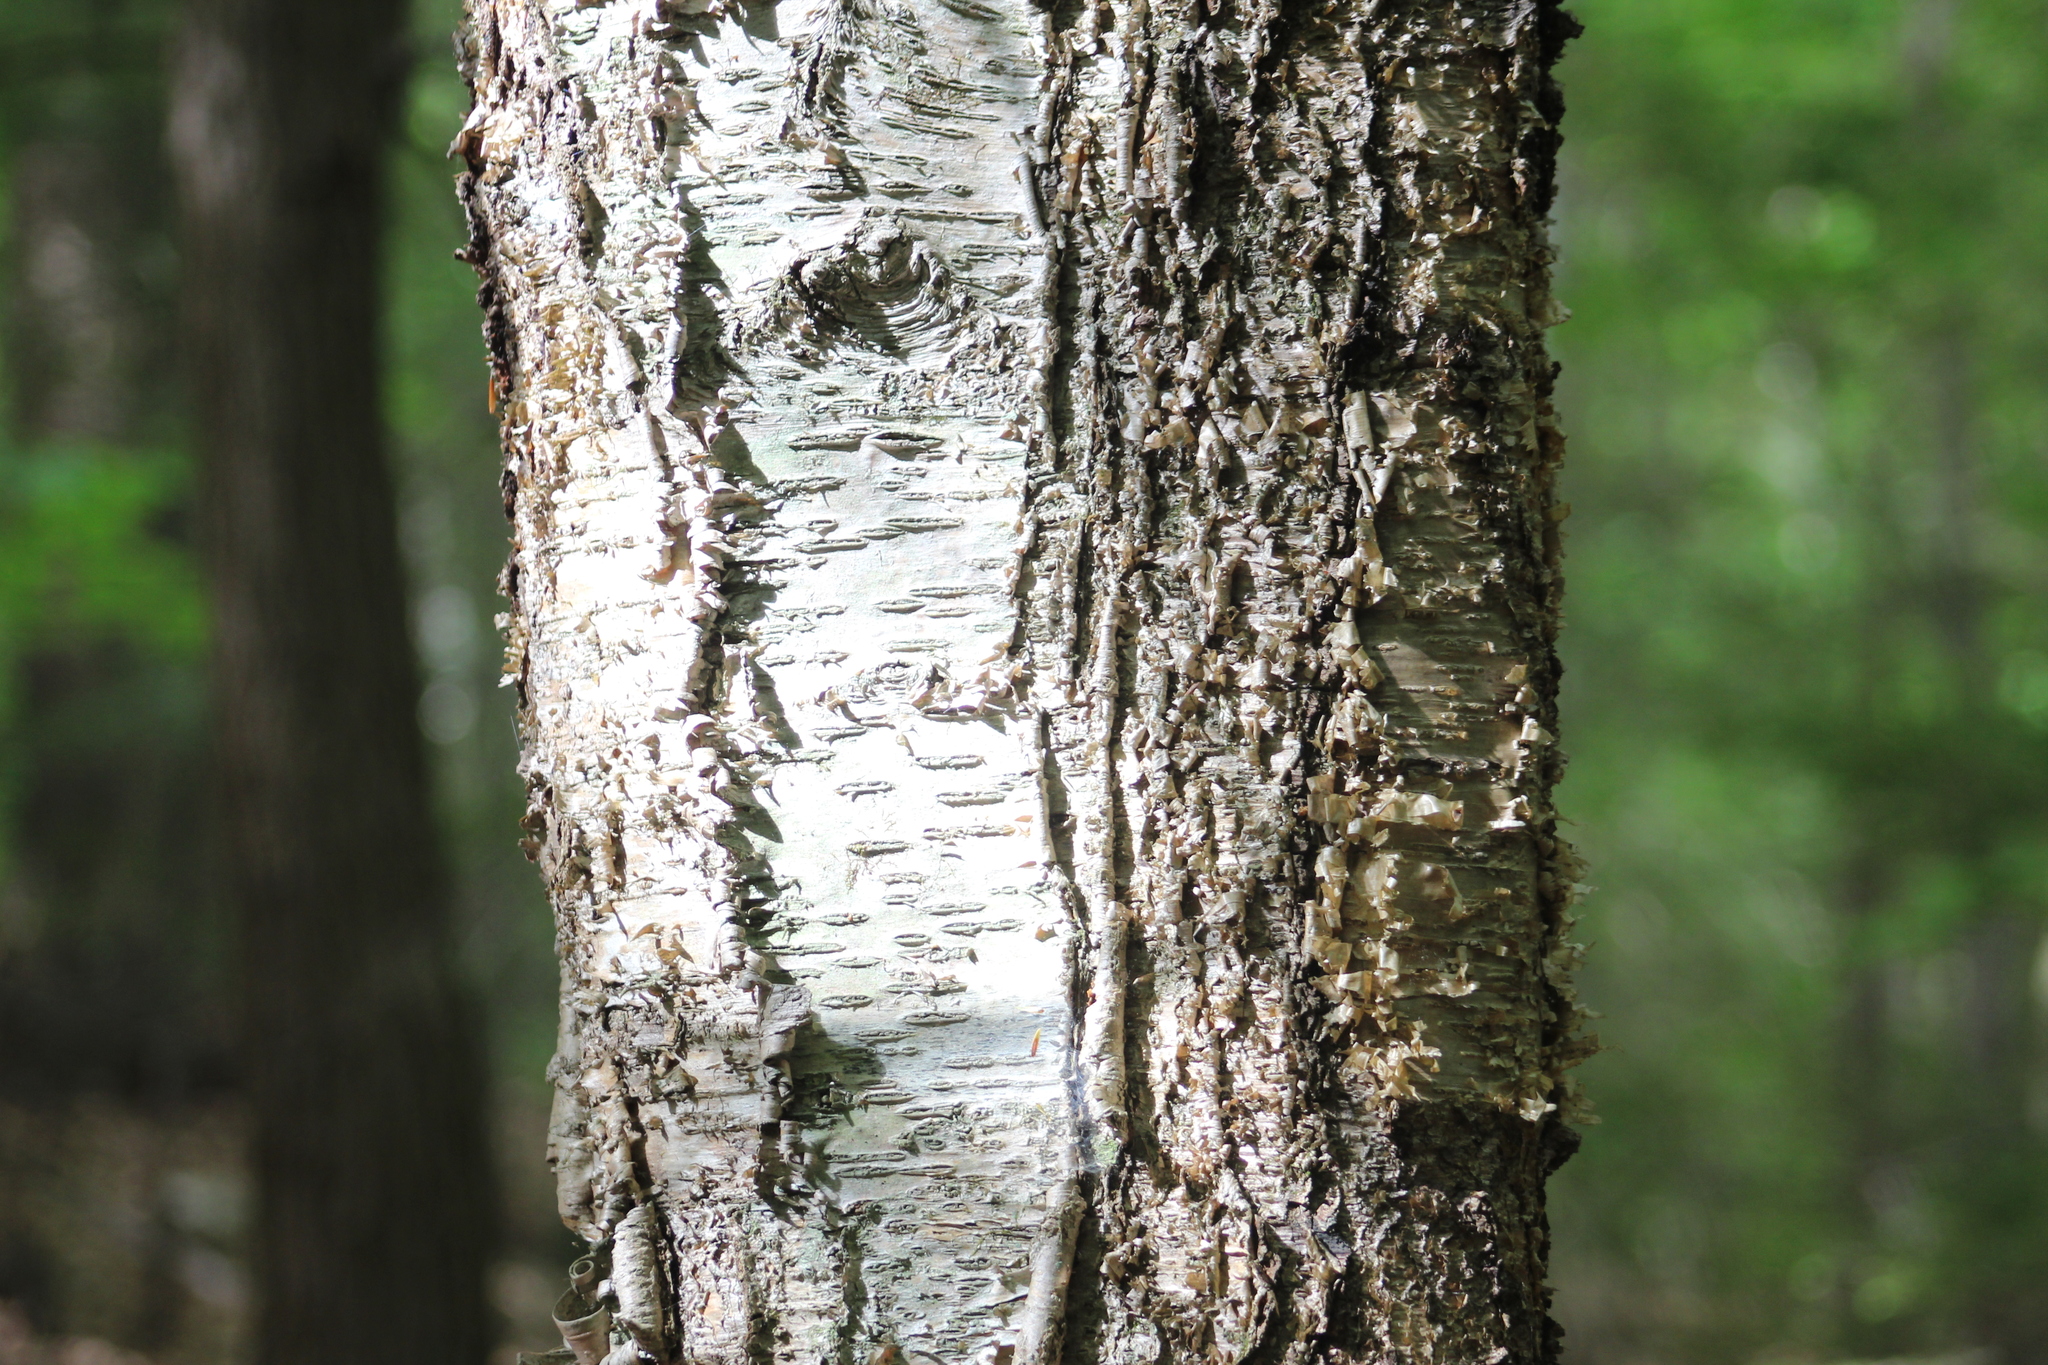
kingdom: Plantae
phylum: Tracheophyta
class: Magnoliopsida
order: Fagales
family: Betulaceae
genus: Betula
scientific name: Betula alleghaniensis
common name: Yellow birch
